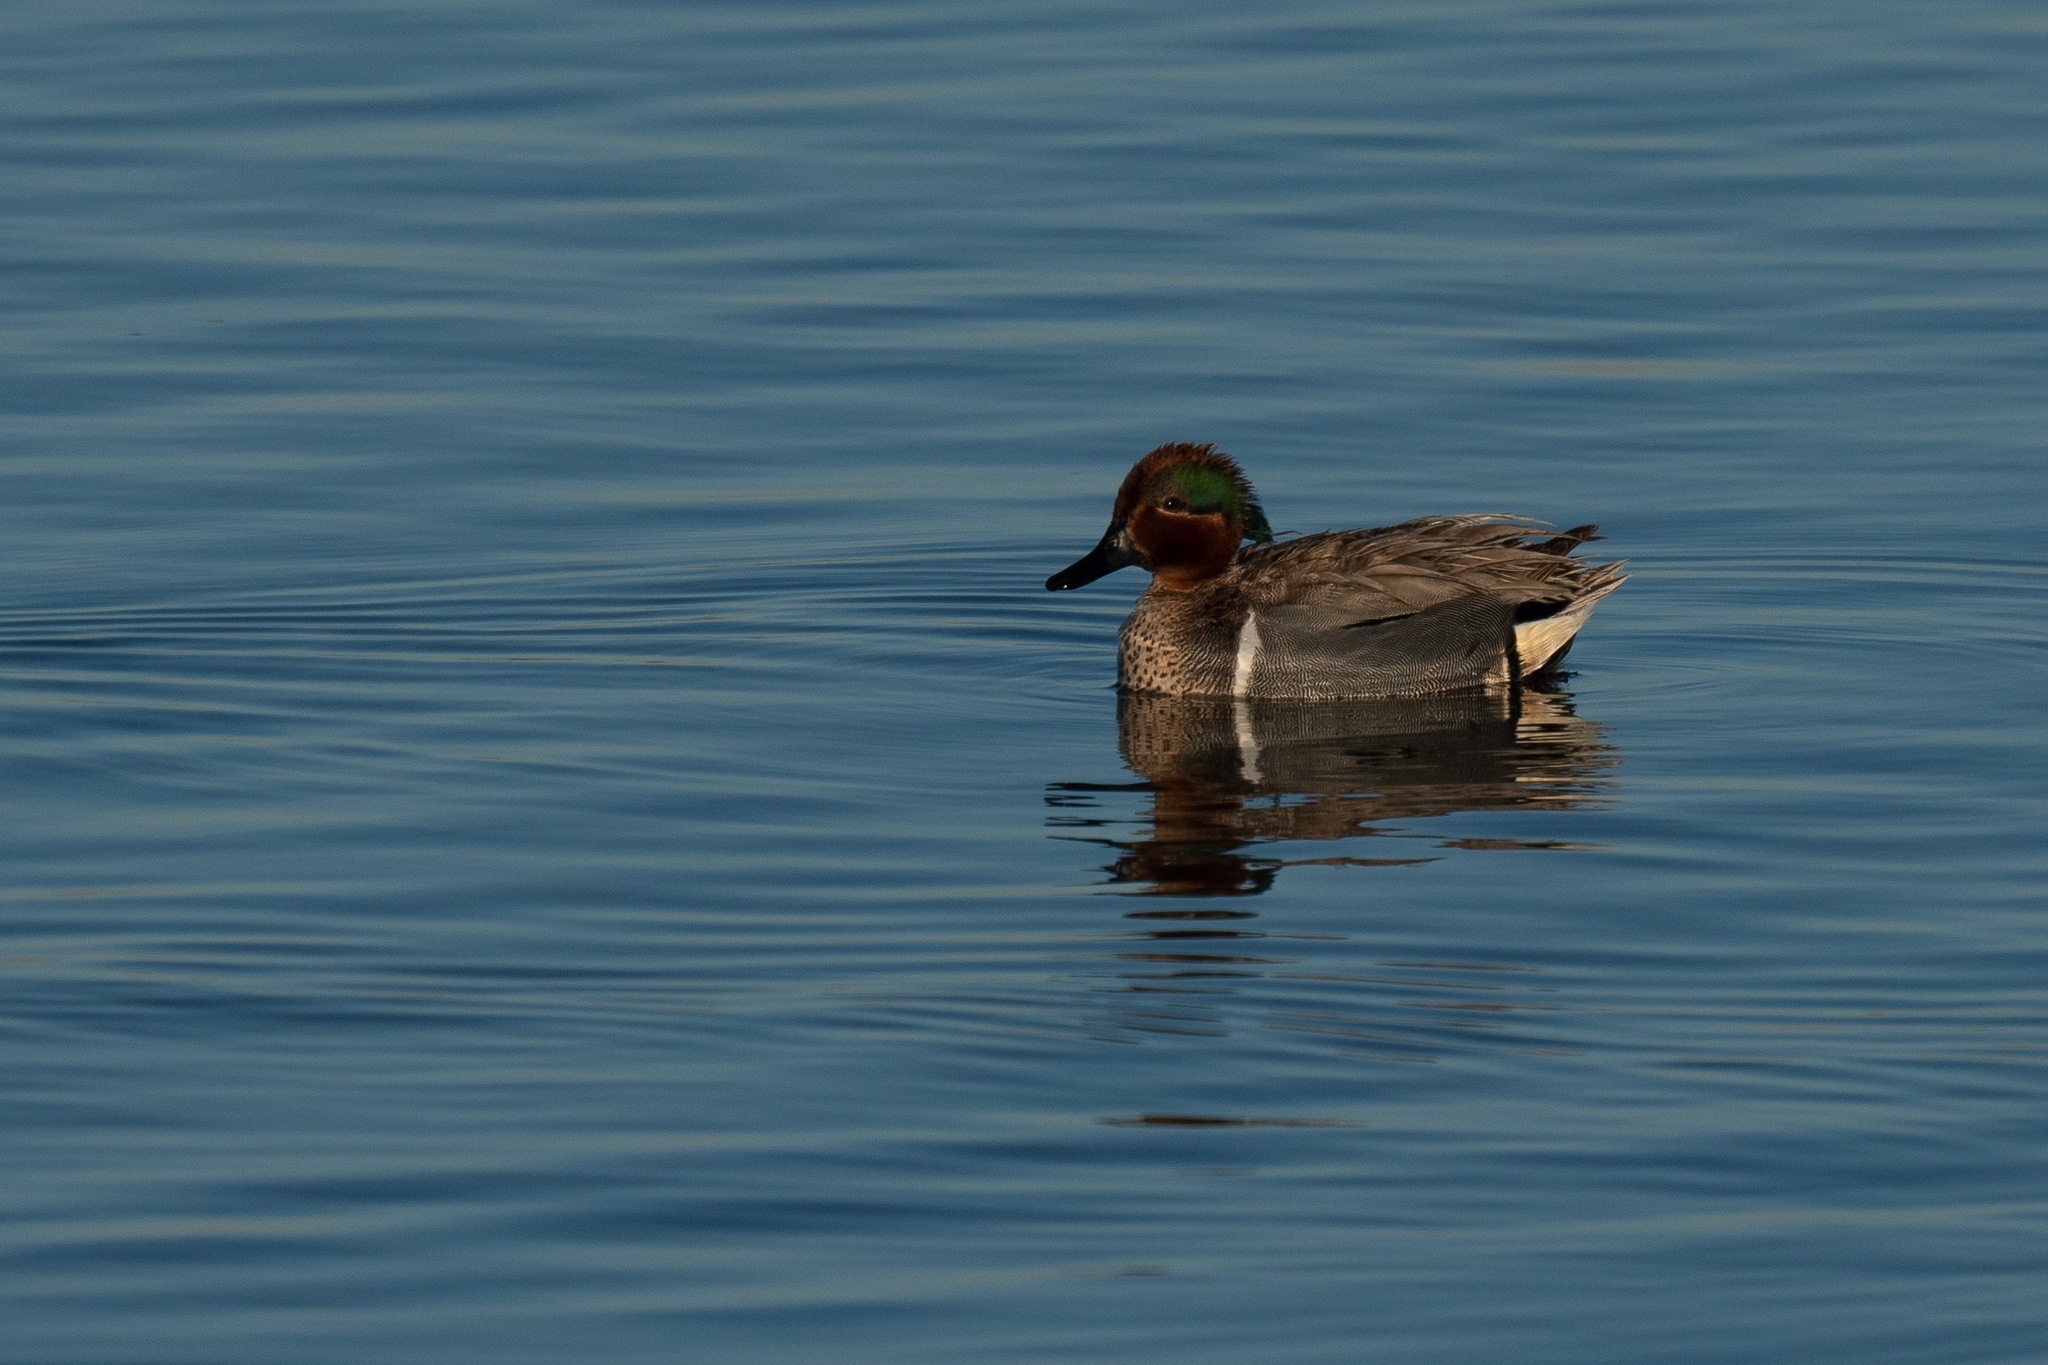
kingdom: Animalia
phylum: Chordata
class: Aves
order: Anseriformes
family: Anatidae
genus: Anas
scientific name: Anas crecca
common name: Eurasian teal
